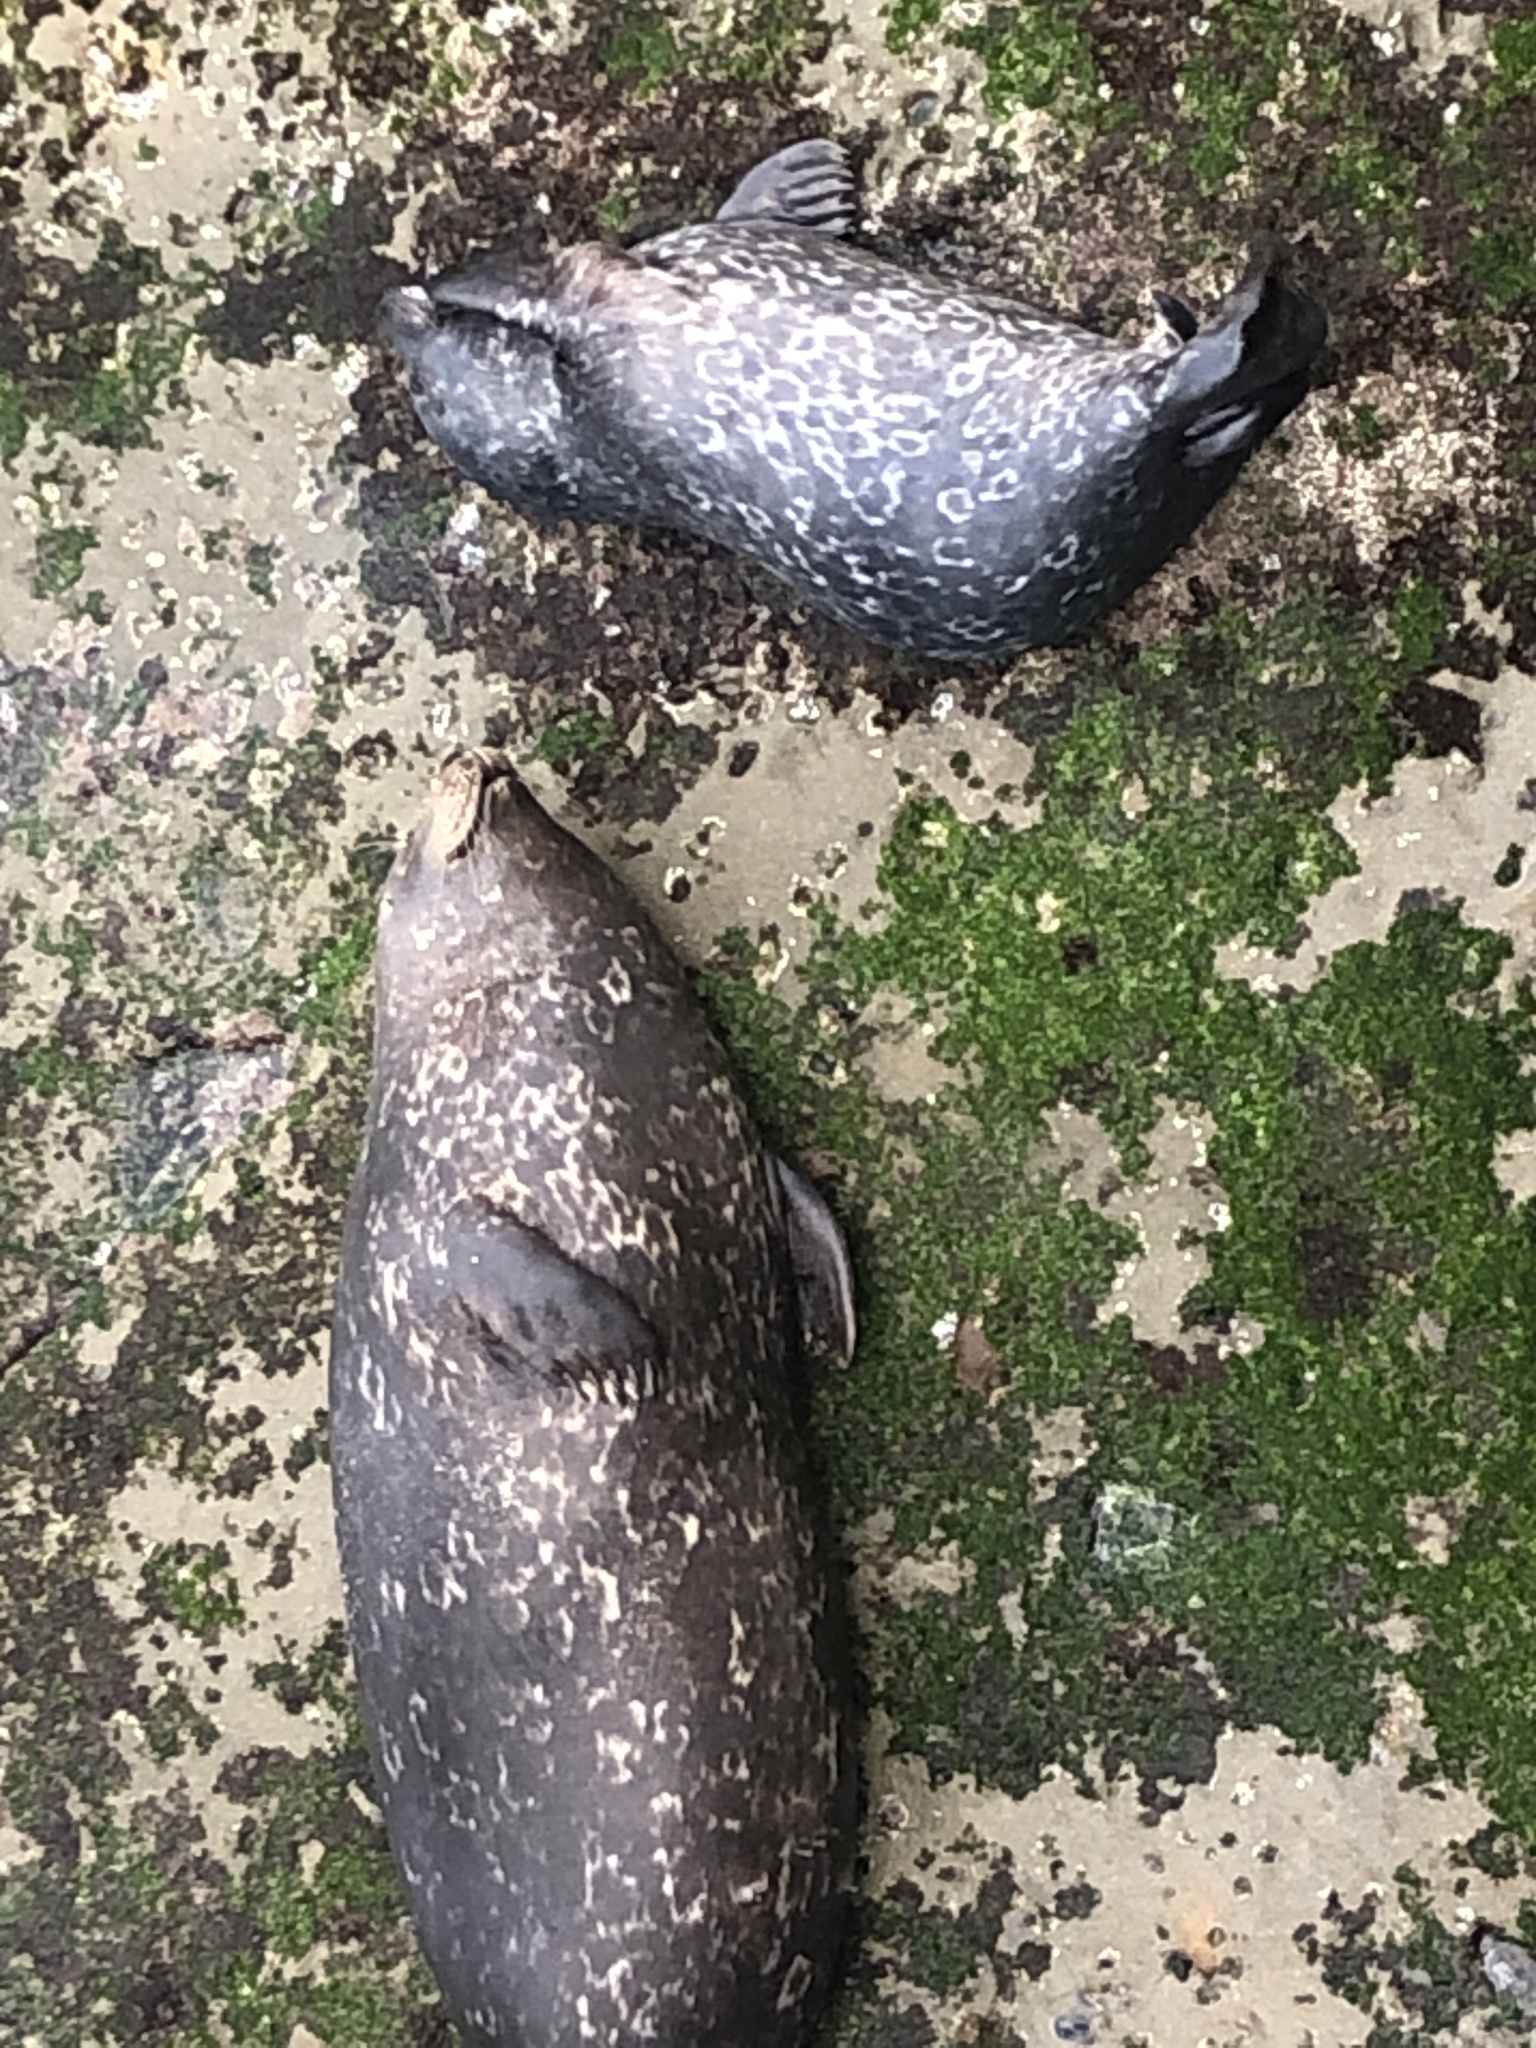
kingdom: Animalia
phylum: Chordata
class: Mammalia
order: Carnivora
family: Phocidae
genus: Phoca
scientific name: Phoca vitulina
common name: Harbor seal
